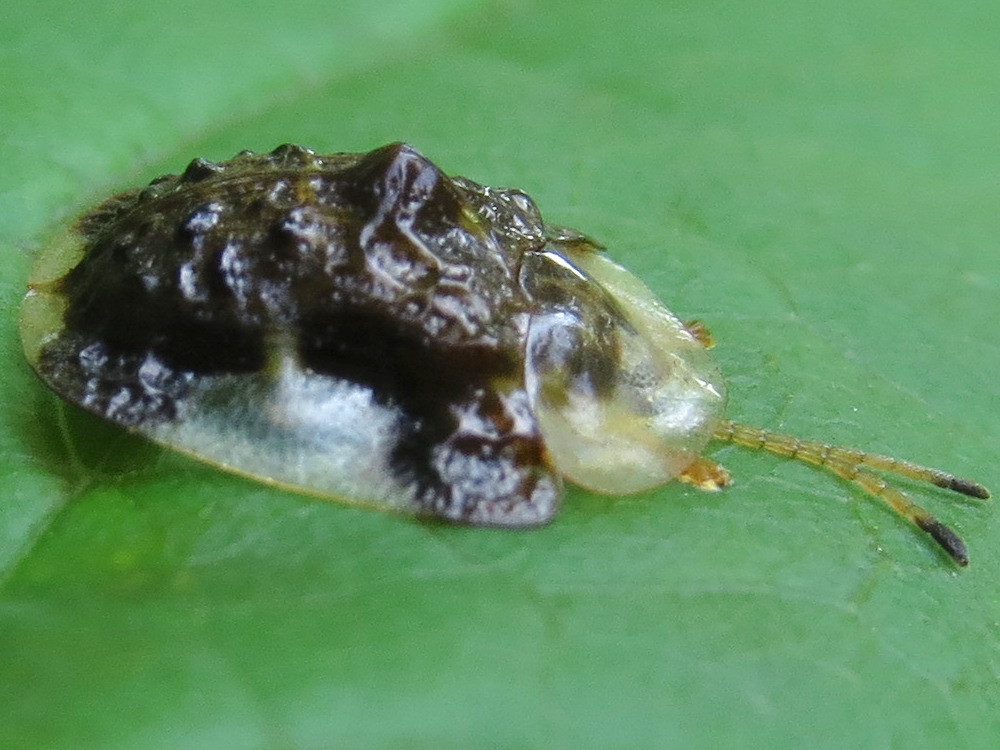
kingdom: Animalia
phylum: Arthropoda
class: Insecta
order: Coleoptera
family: Chrysomelidae
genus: Helocassis
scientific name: Helocassis clavata
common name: Clavate tortoise beetle
